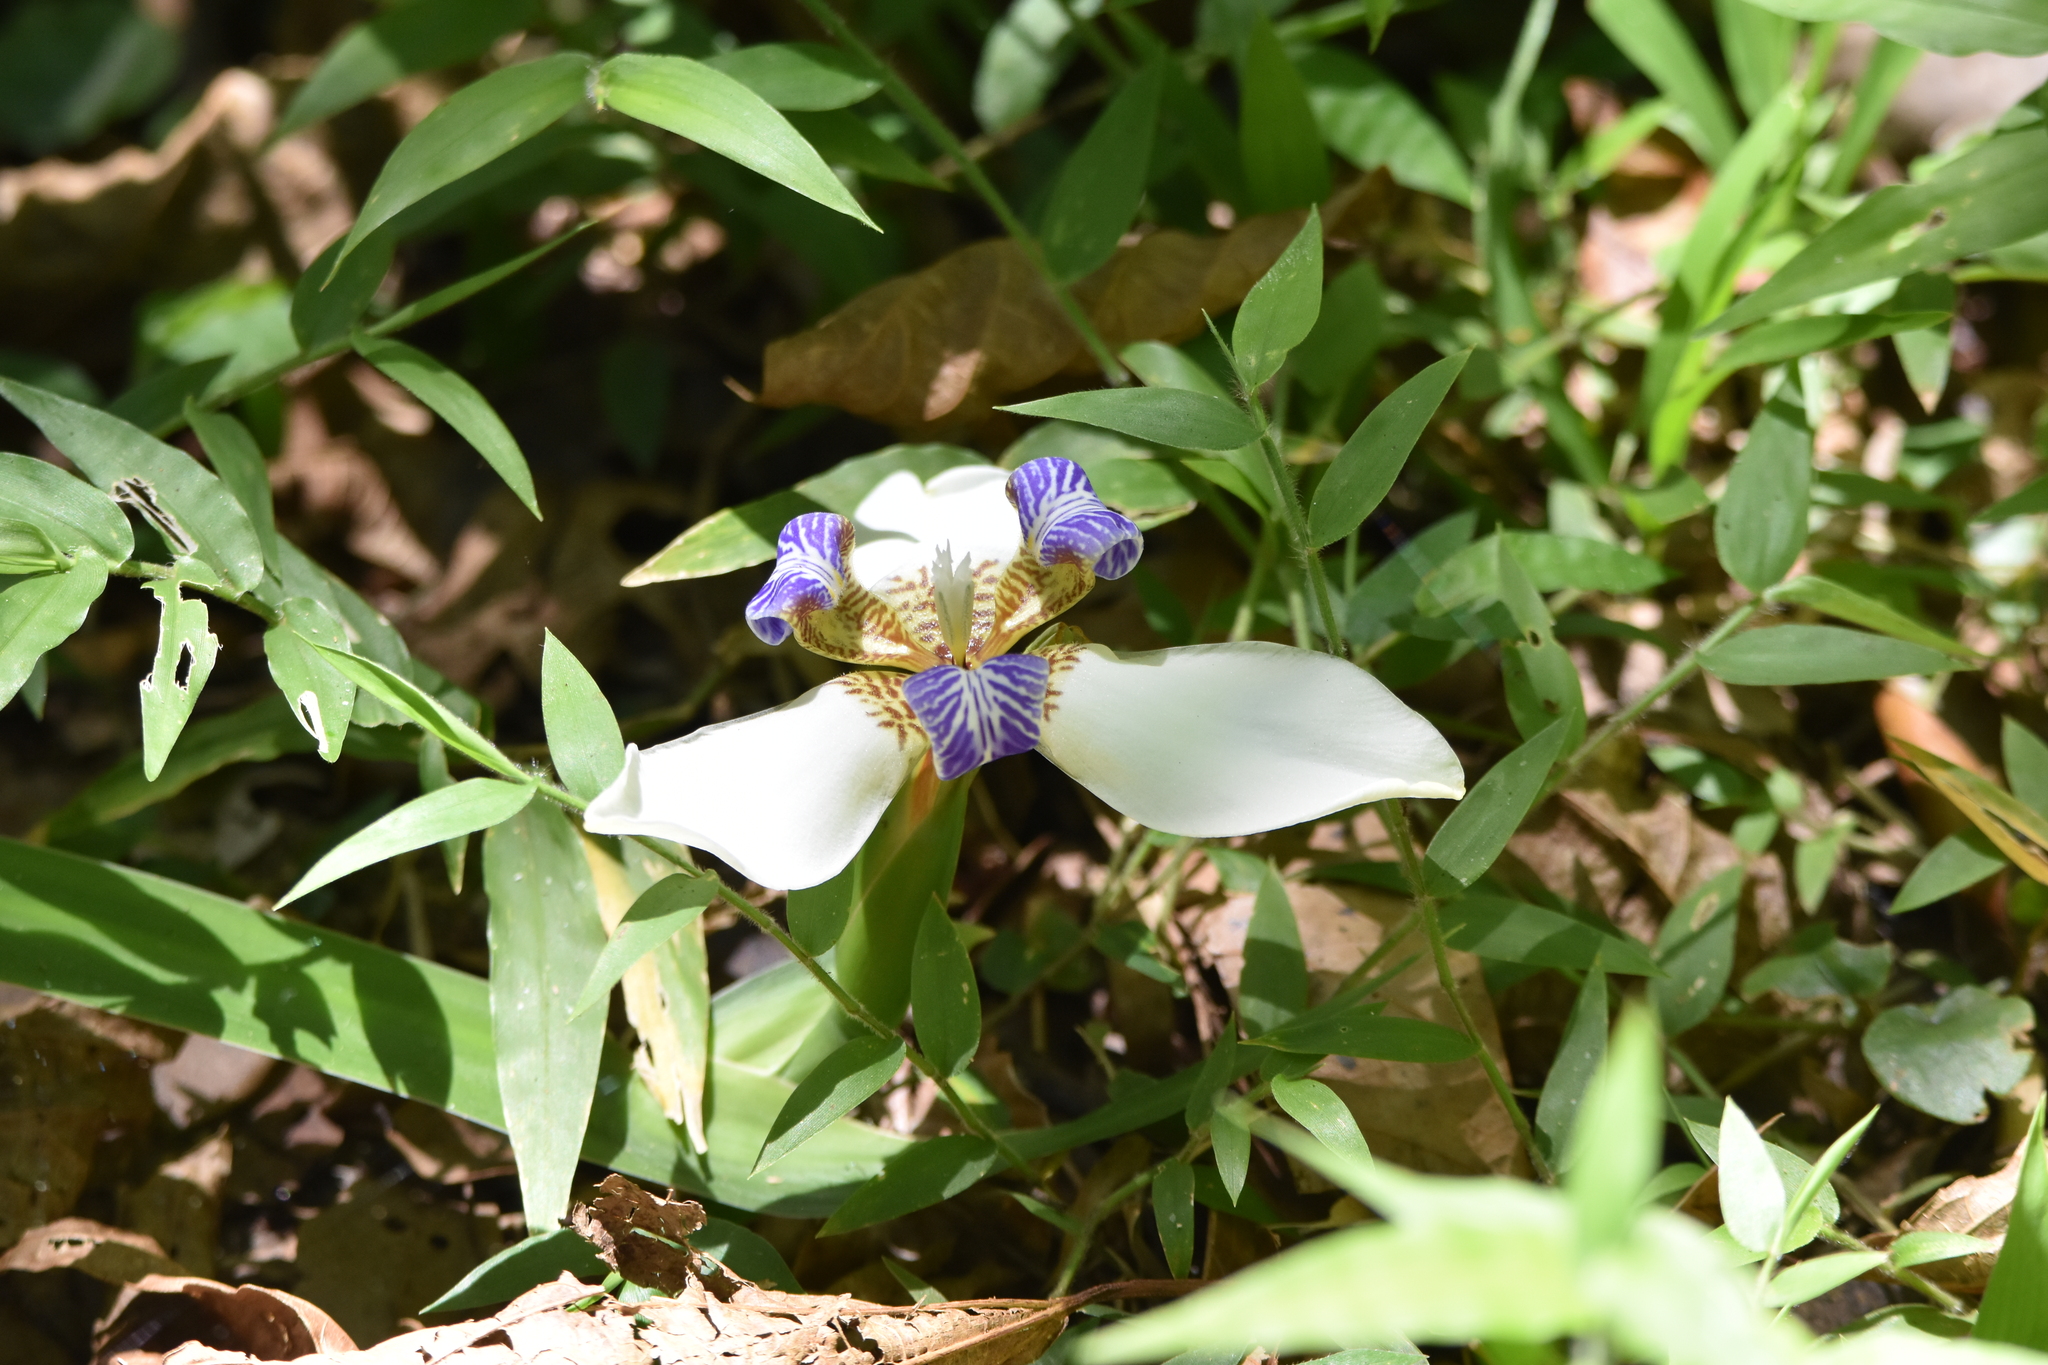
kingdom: Plantae
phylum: Tracheophyta
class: Liliopsida
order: Asparagales
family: Iridaceae
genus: Trimezia
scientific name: Trimezia candida
